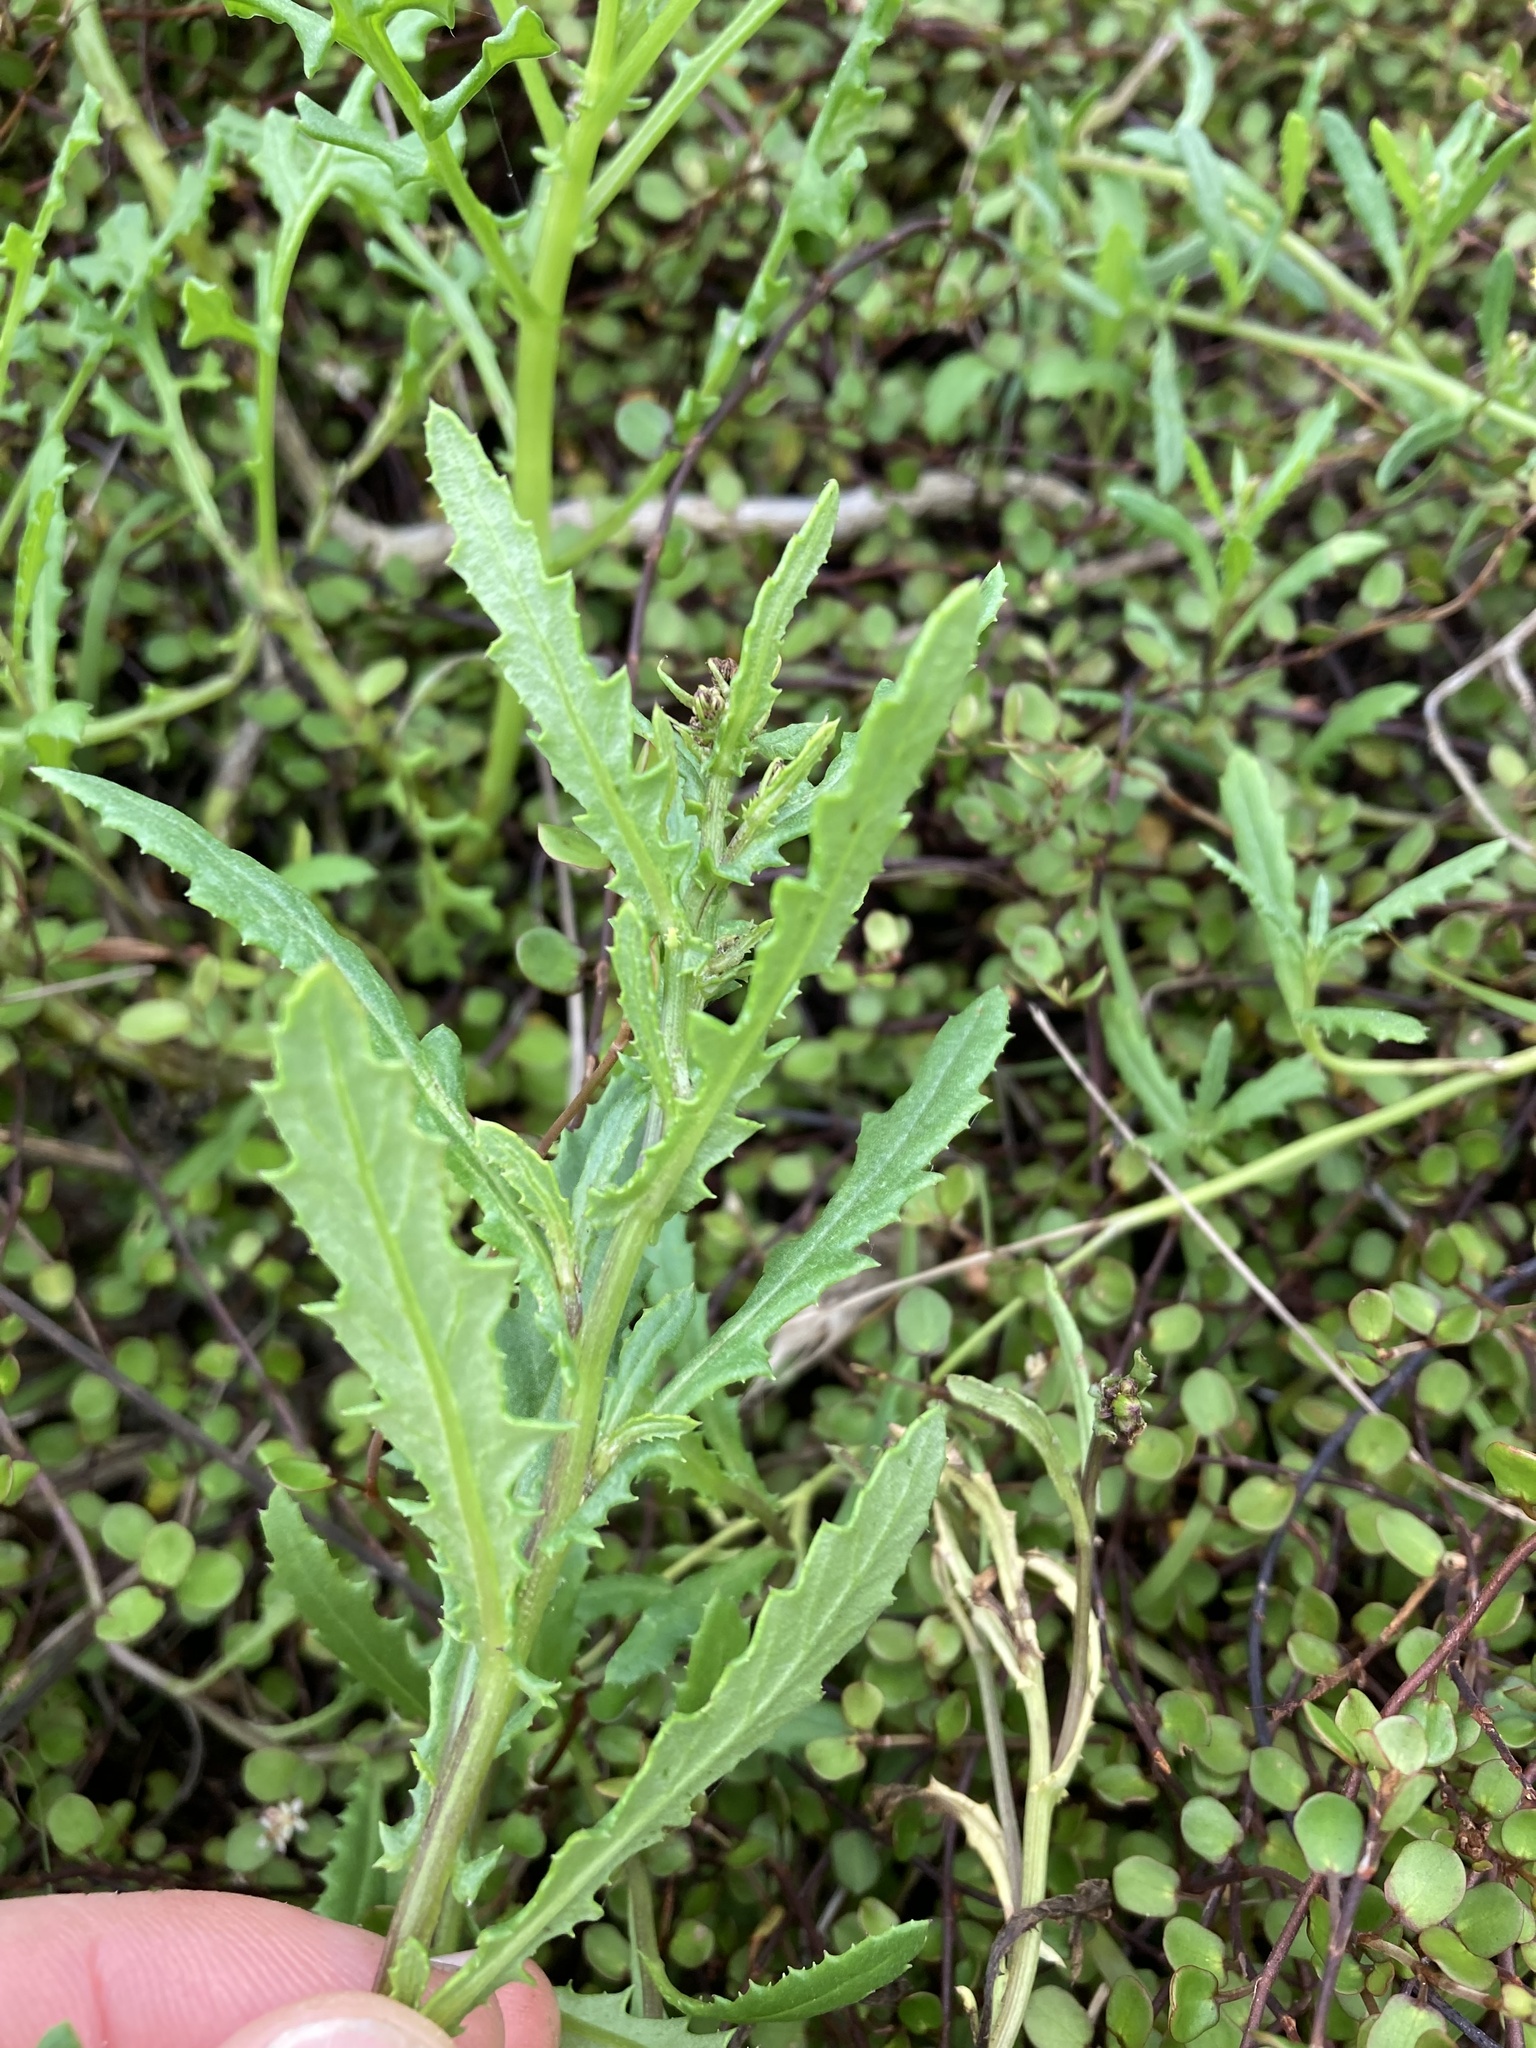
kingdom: Plantae
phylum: Tracheophyta
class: Magnoliopsida
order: Asterales
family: Asteraceae
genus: Senecio
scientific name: Senecio biserratus
